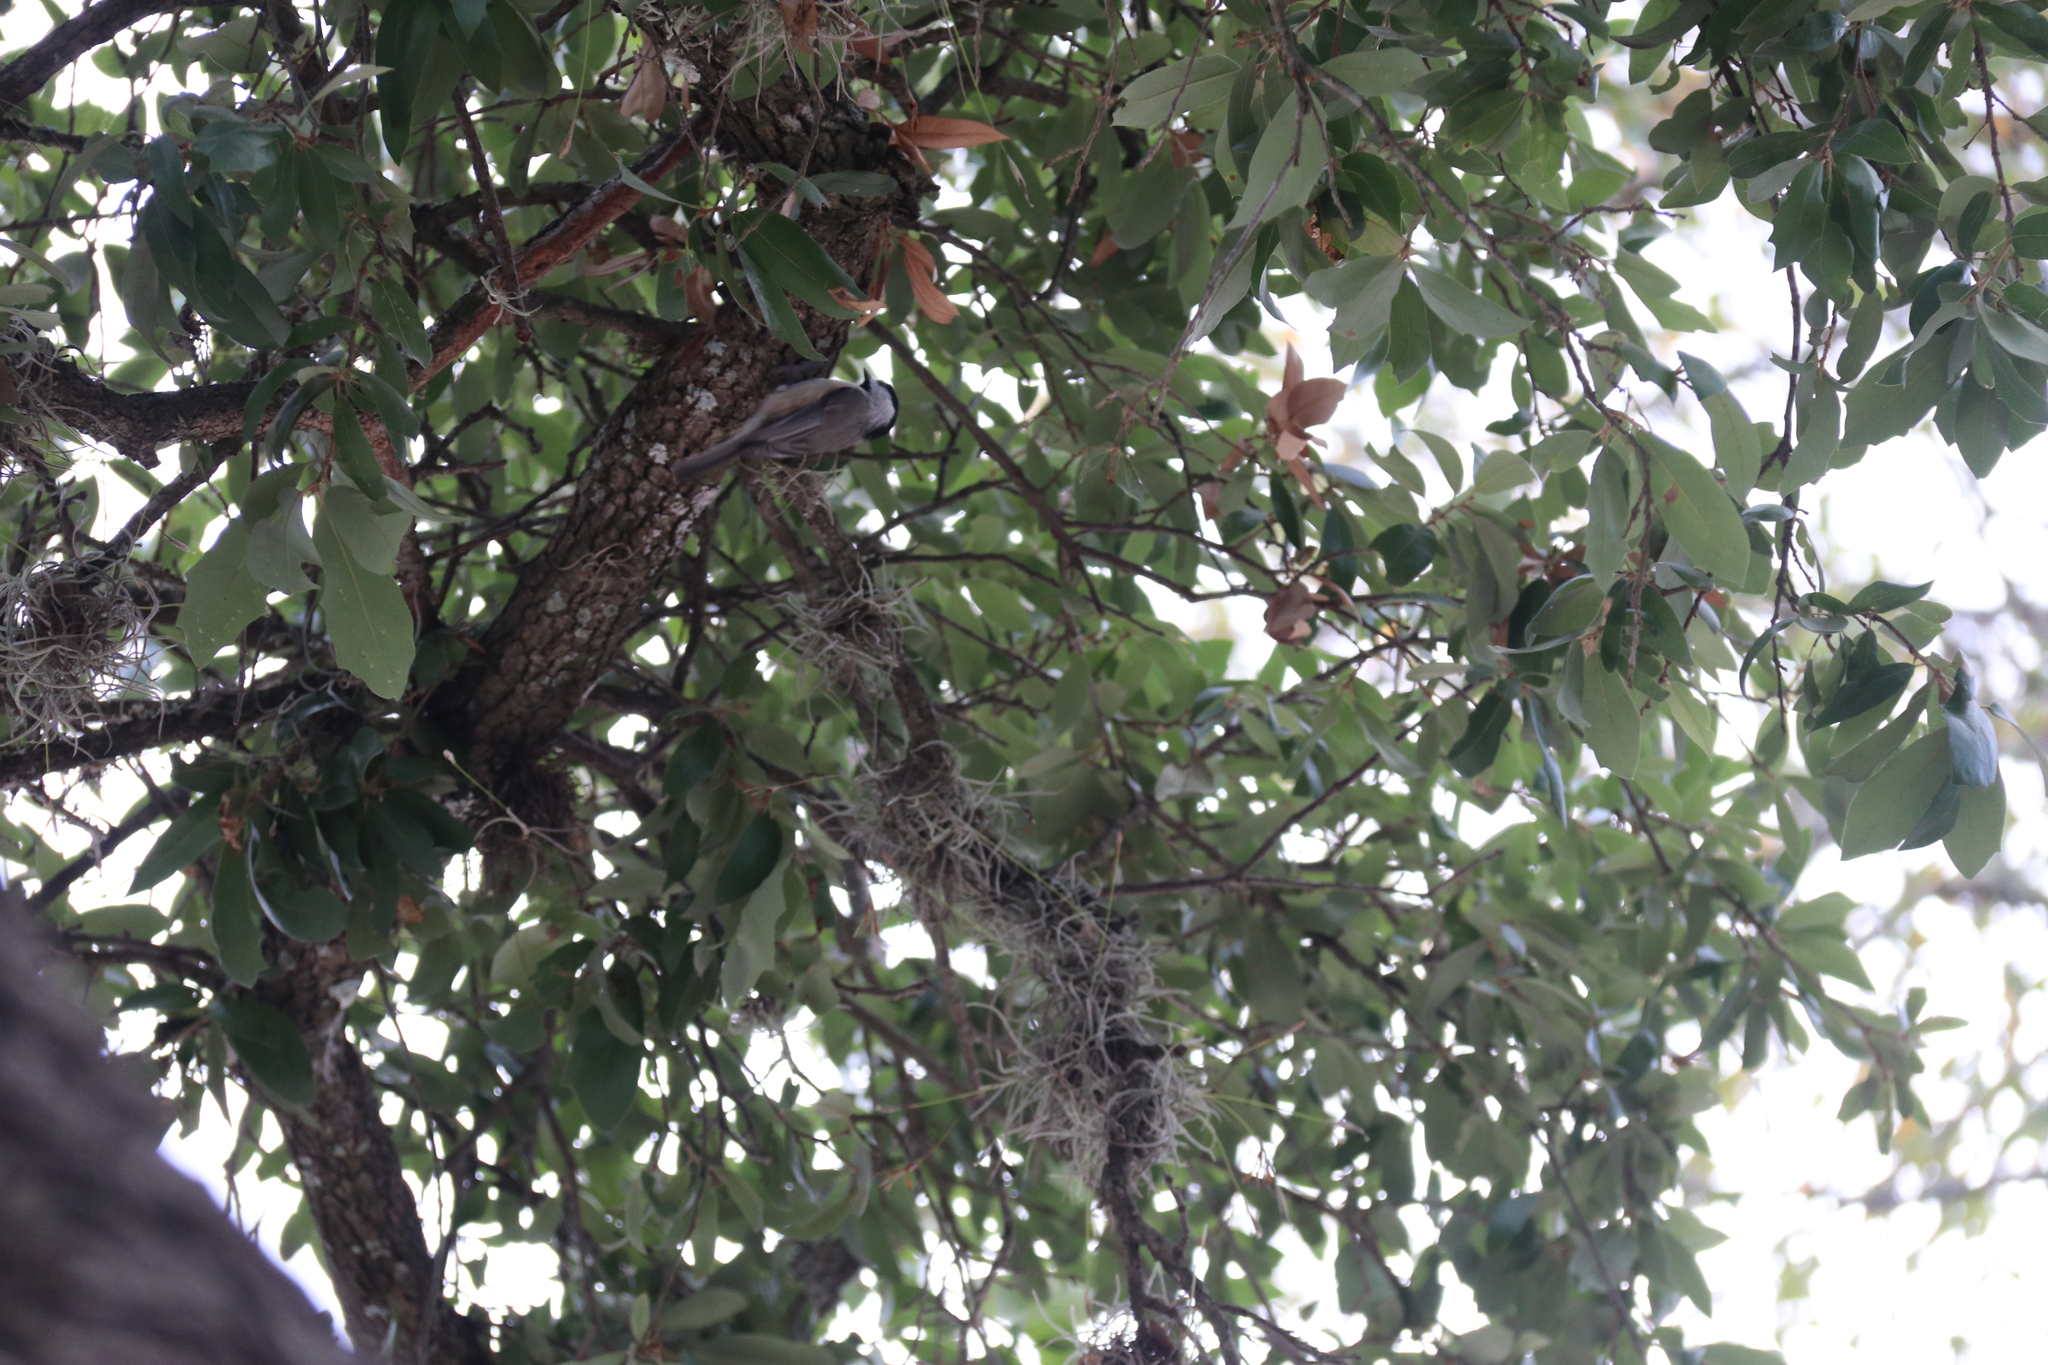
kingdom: Animalia
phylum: Chordata
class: Aves
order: Passeriformes
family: Paridae
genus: Poecile
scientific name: Poecile carolinensis
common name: Carolina chickadee
